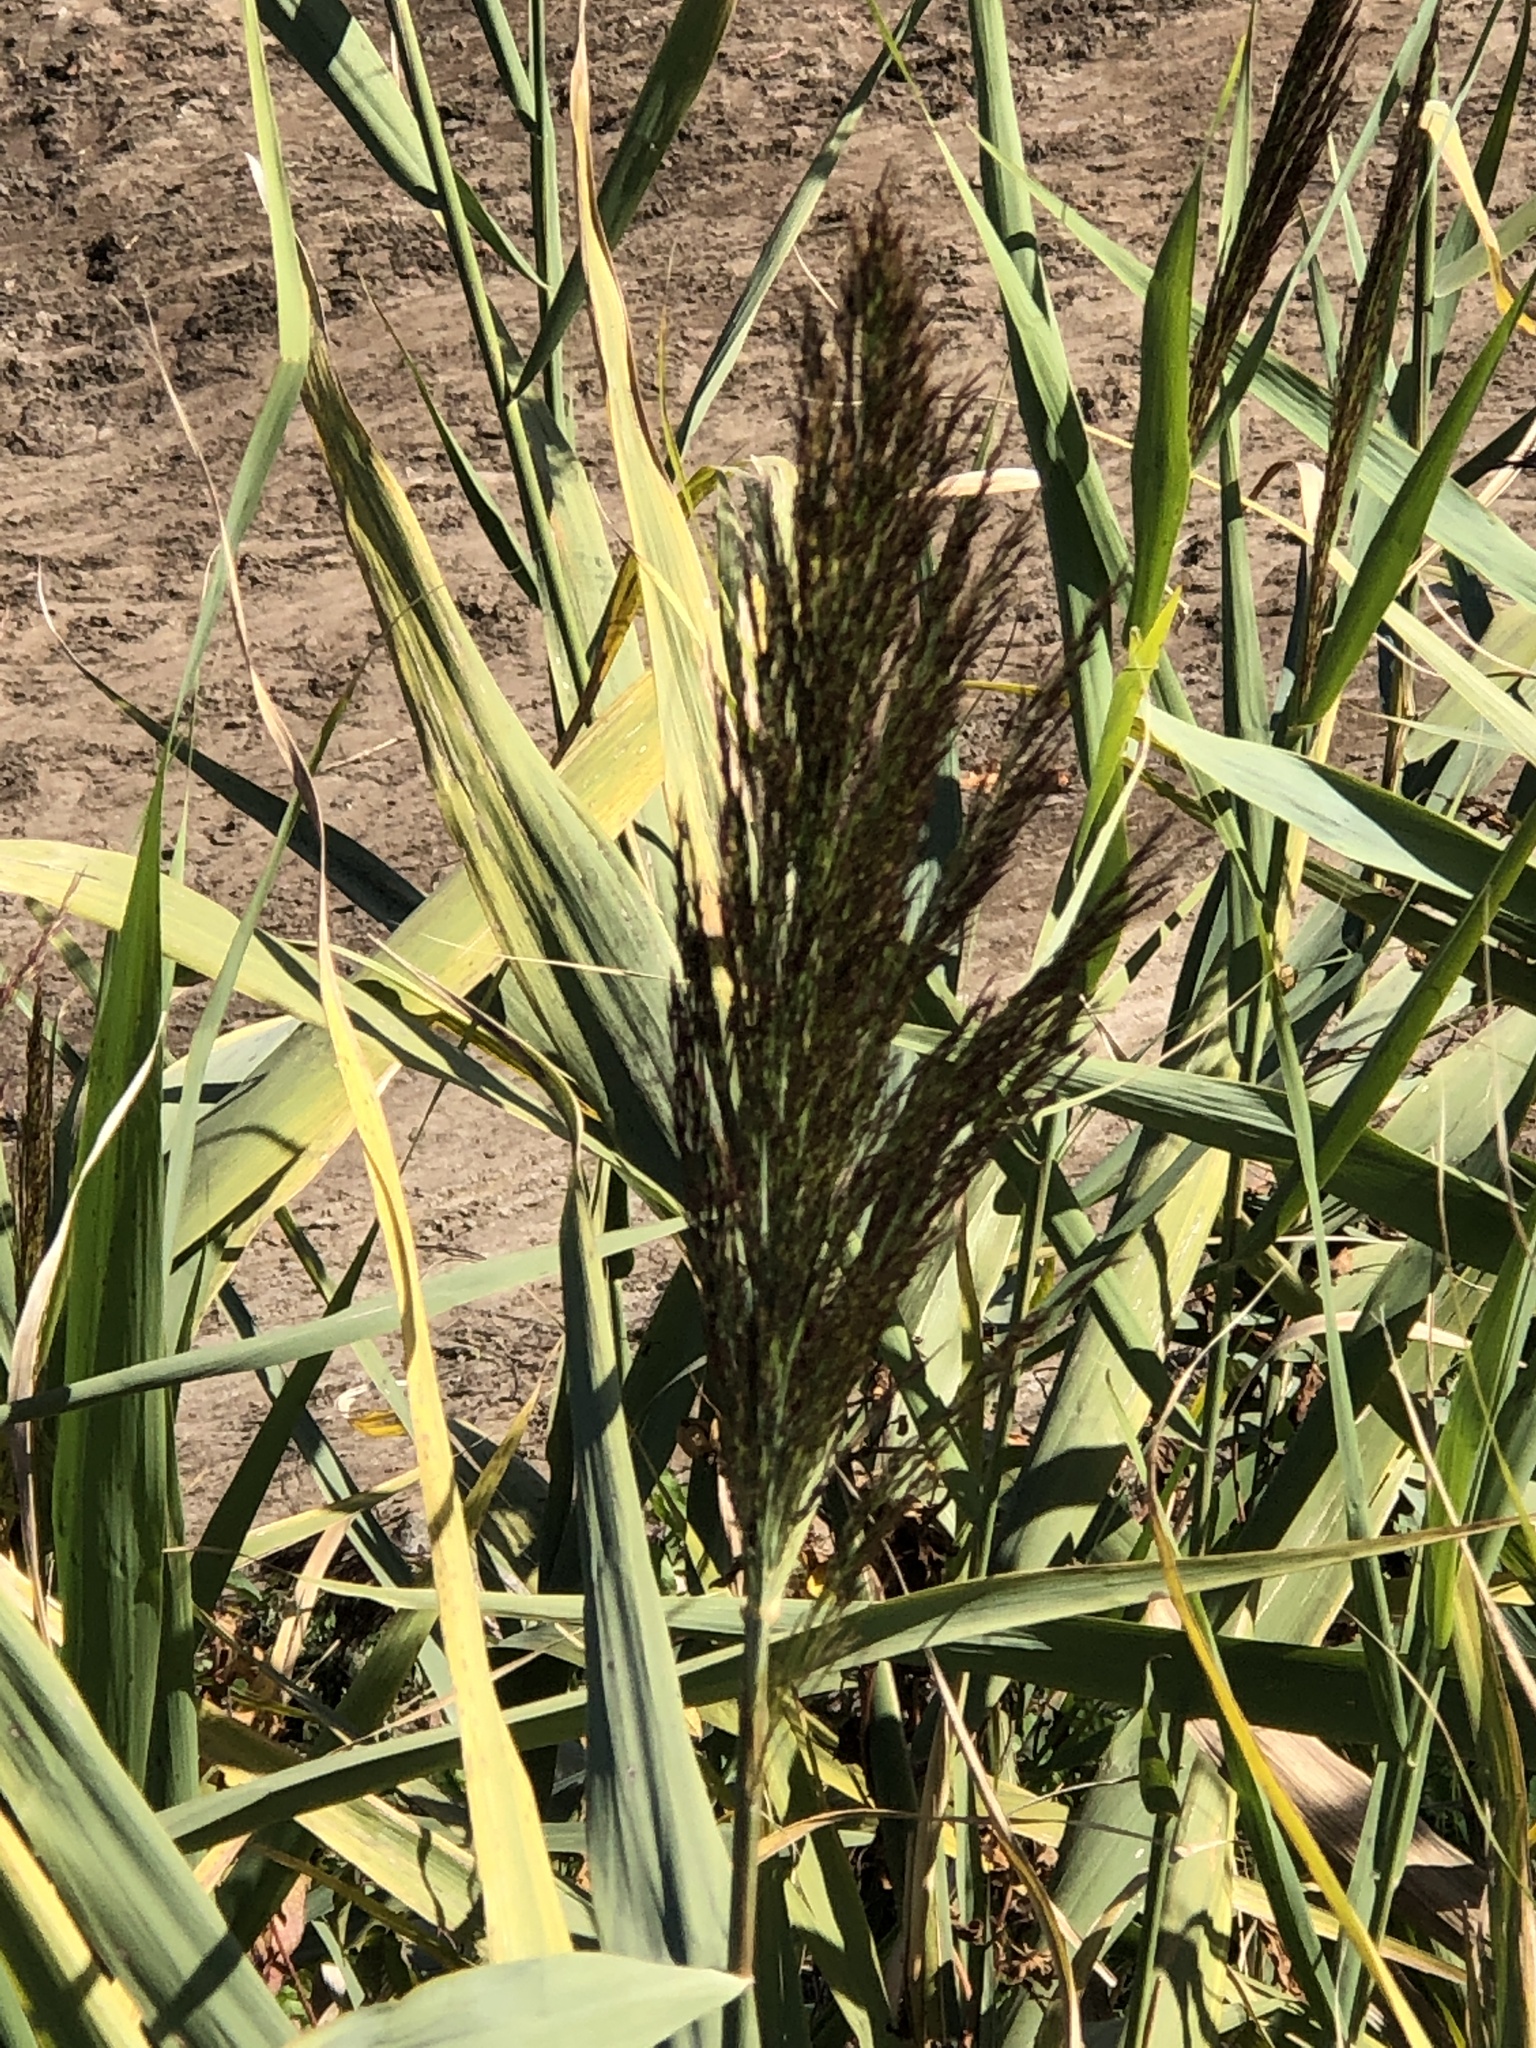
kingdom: Plantae
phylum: Tracheophyta
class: Liliopsida
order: Poales
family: Poaceae
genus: Phragmites
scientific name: Phragmites australis
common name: Common reed
